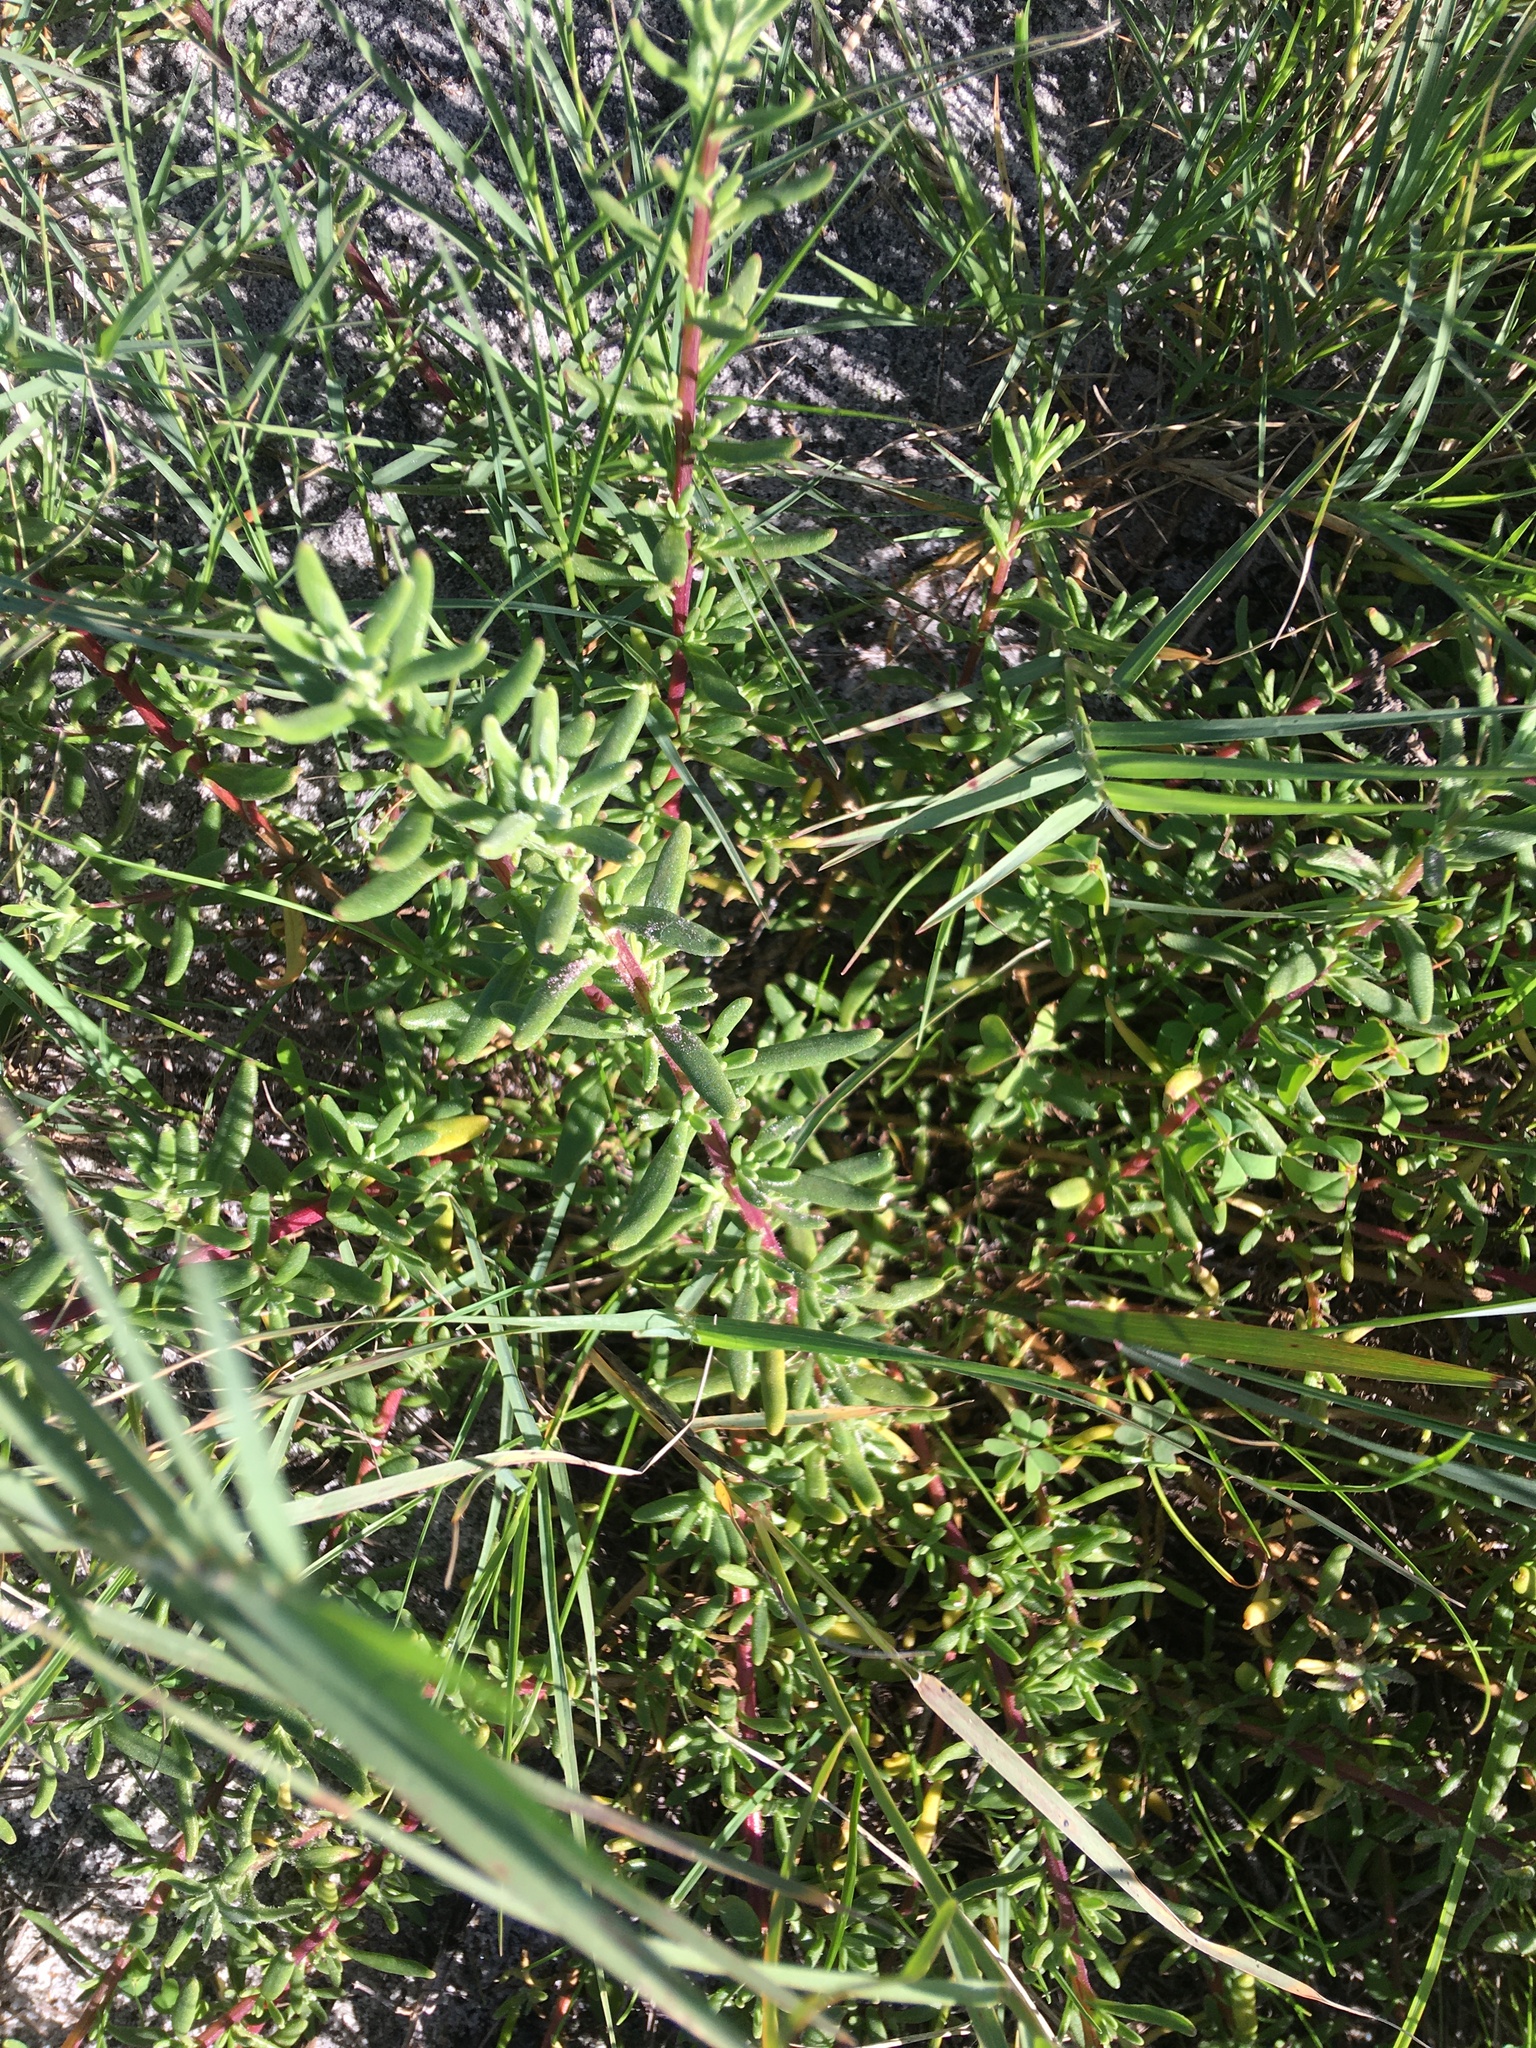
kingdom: Plantae
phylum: Tracheophyta
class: Magnoliopsida
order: Caryophyllales
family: Aizoaceae
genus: Tetragonia
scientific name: Tetragonia fruticosa
